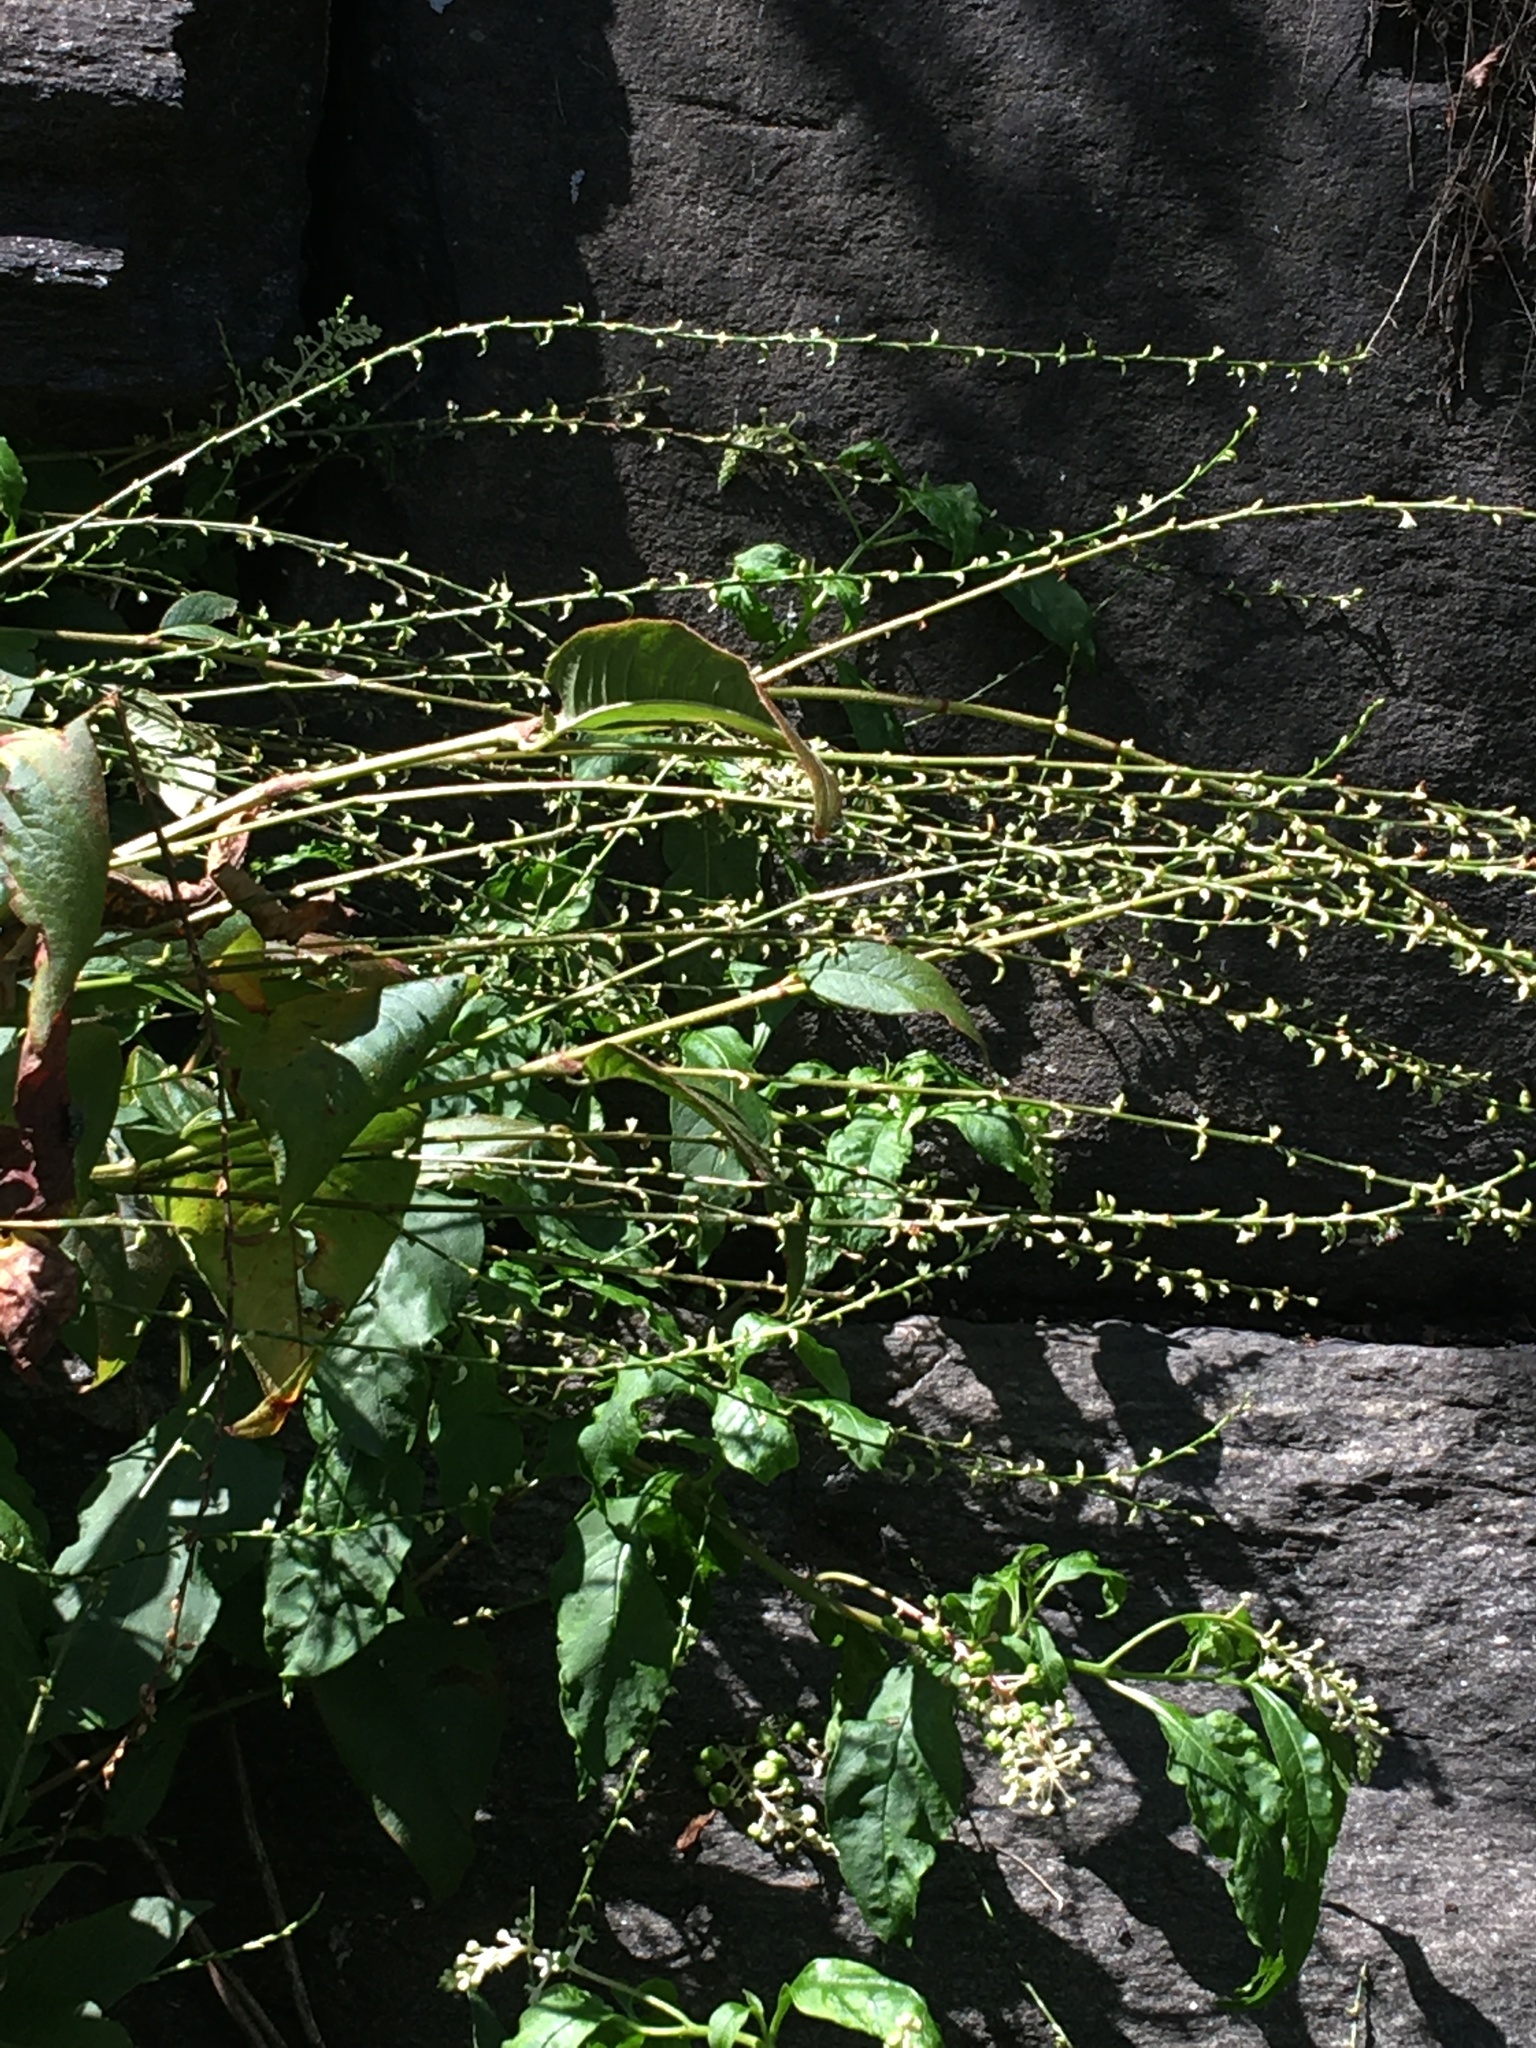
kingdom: Plantae
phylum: Tracheophyta
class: Magnoliopsida
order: Caryophyllales
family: Polygonaceae
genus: Persicaria
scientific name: Persicaria virginiana
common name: Jumpseed
